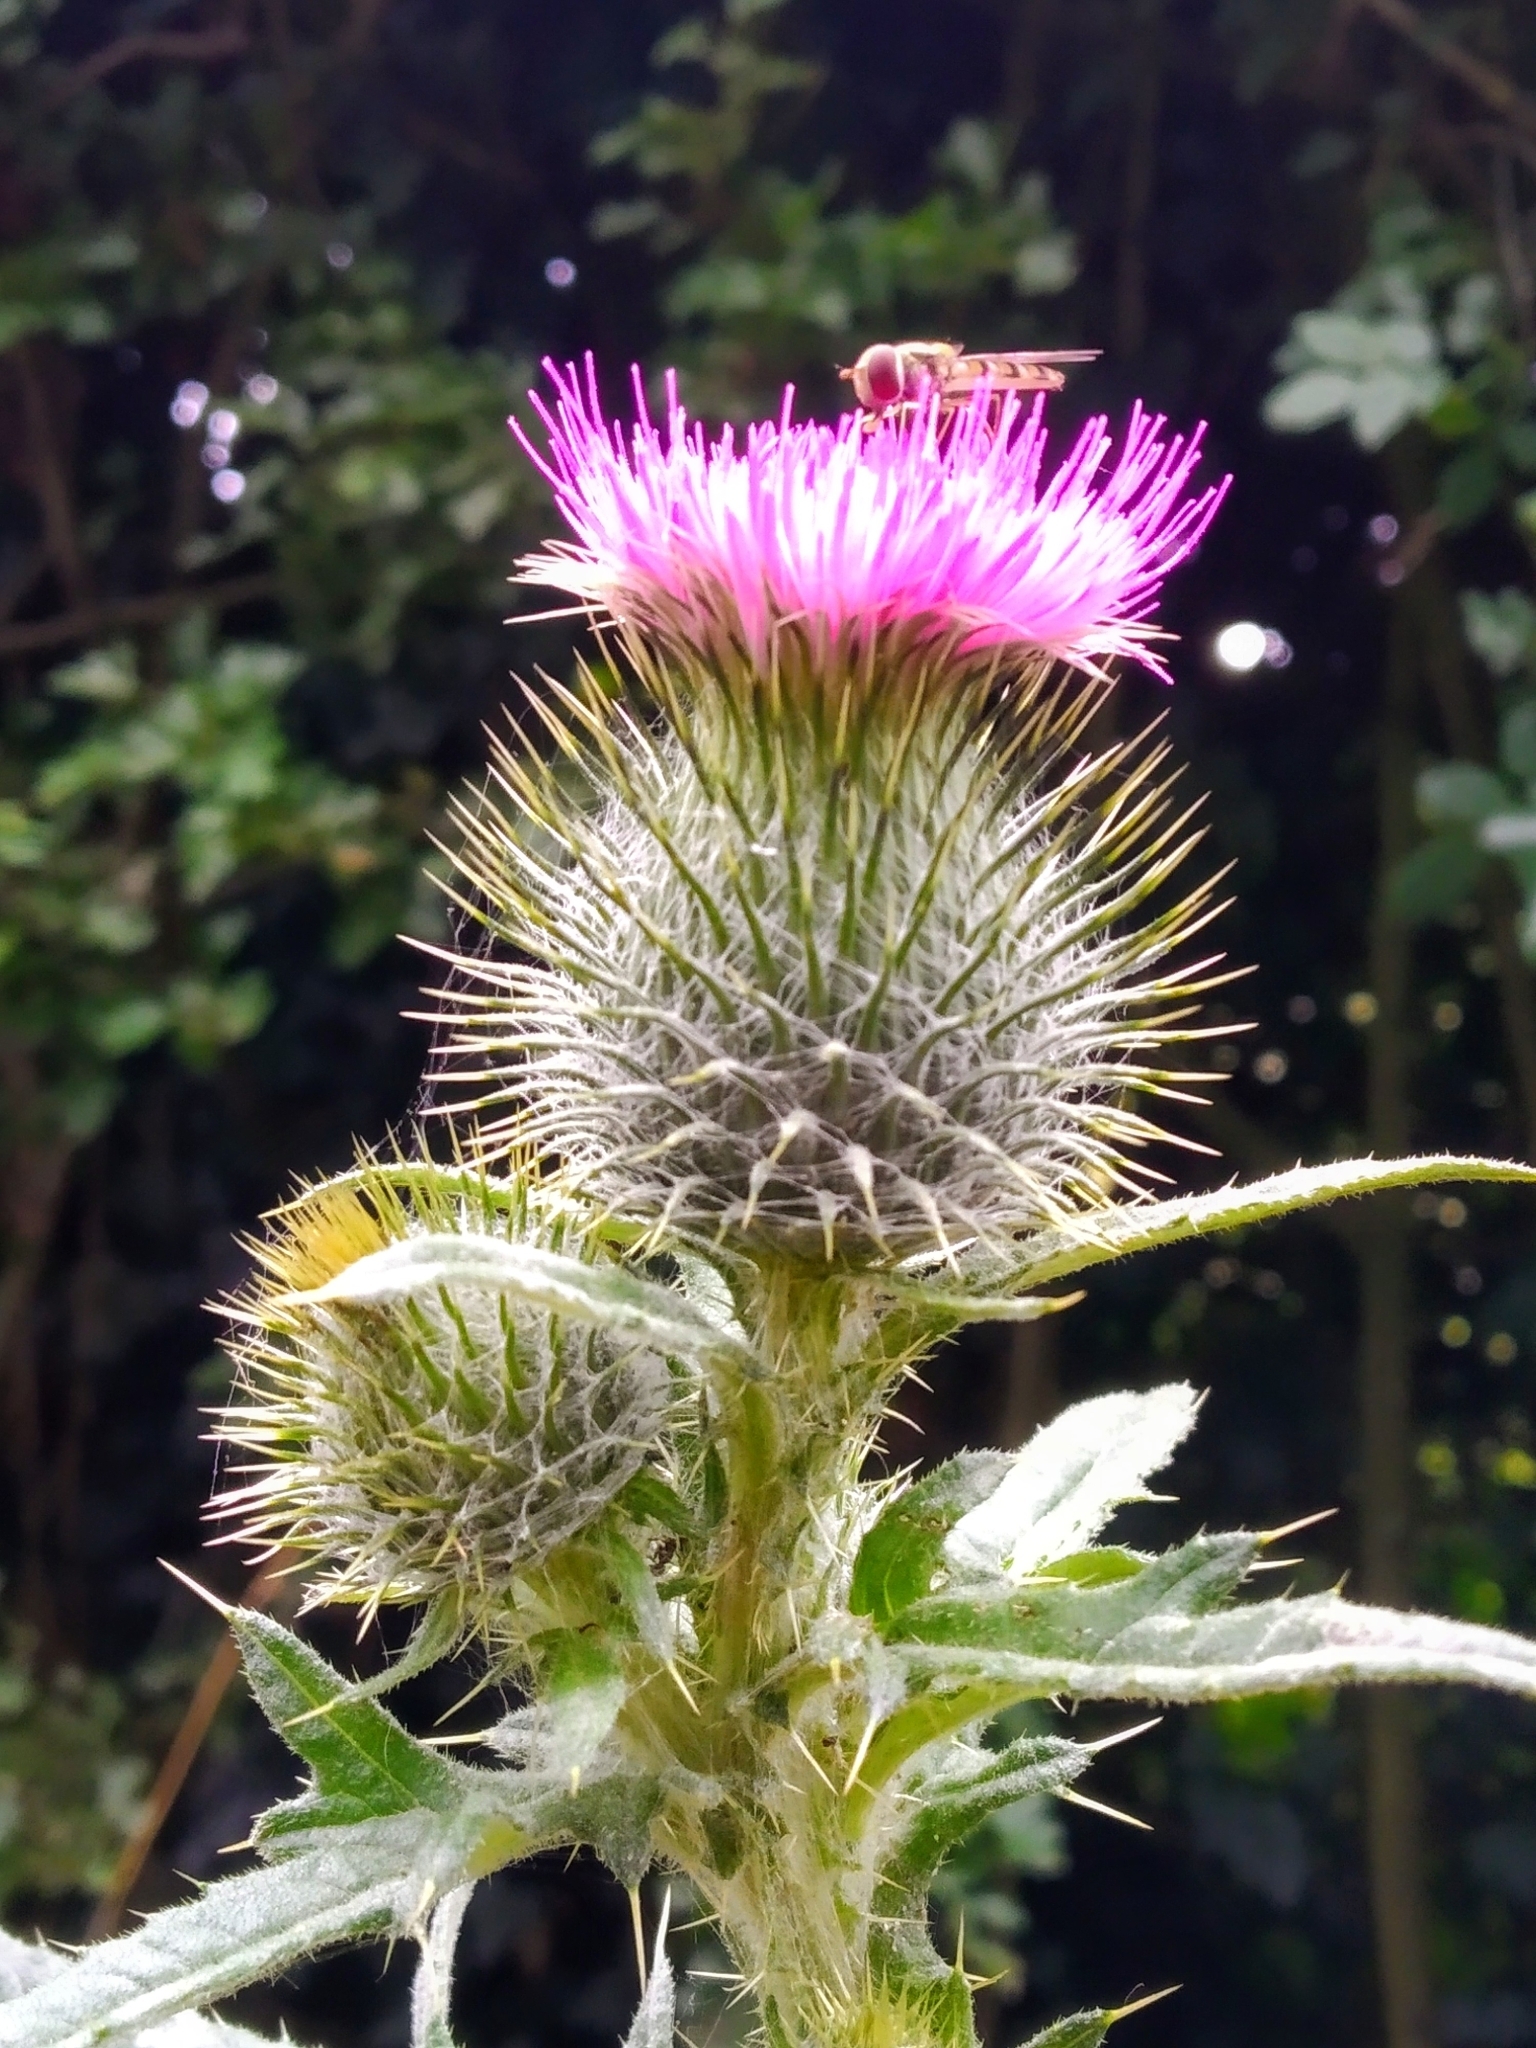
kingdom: Plantae
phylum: Tracheophyta
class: Magnoliopsida
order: Asterales
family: Asteraceae
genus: Cirsium
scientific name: Cirsium vulgare
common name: Bull thistle
